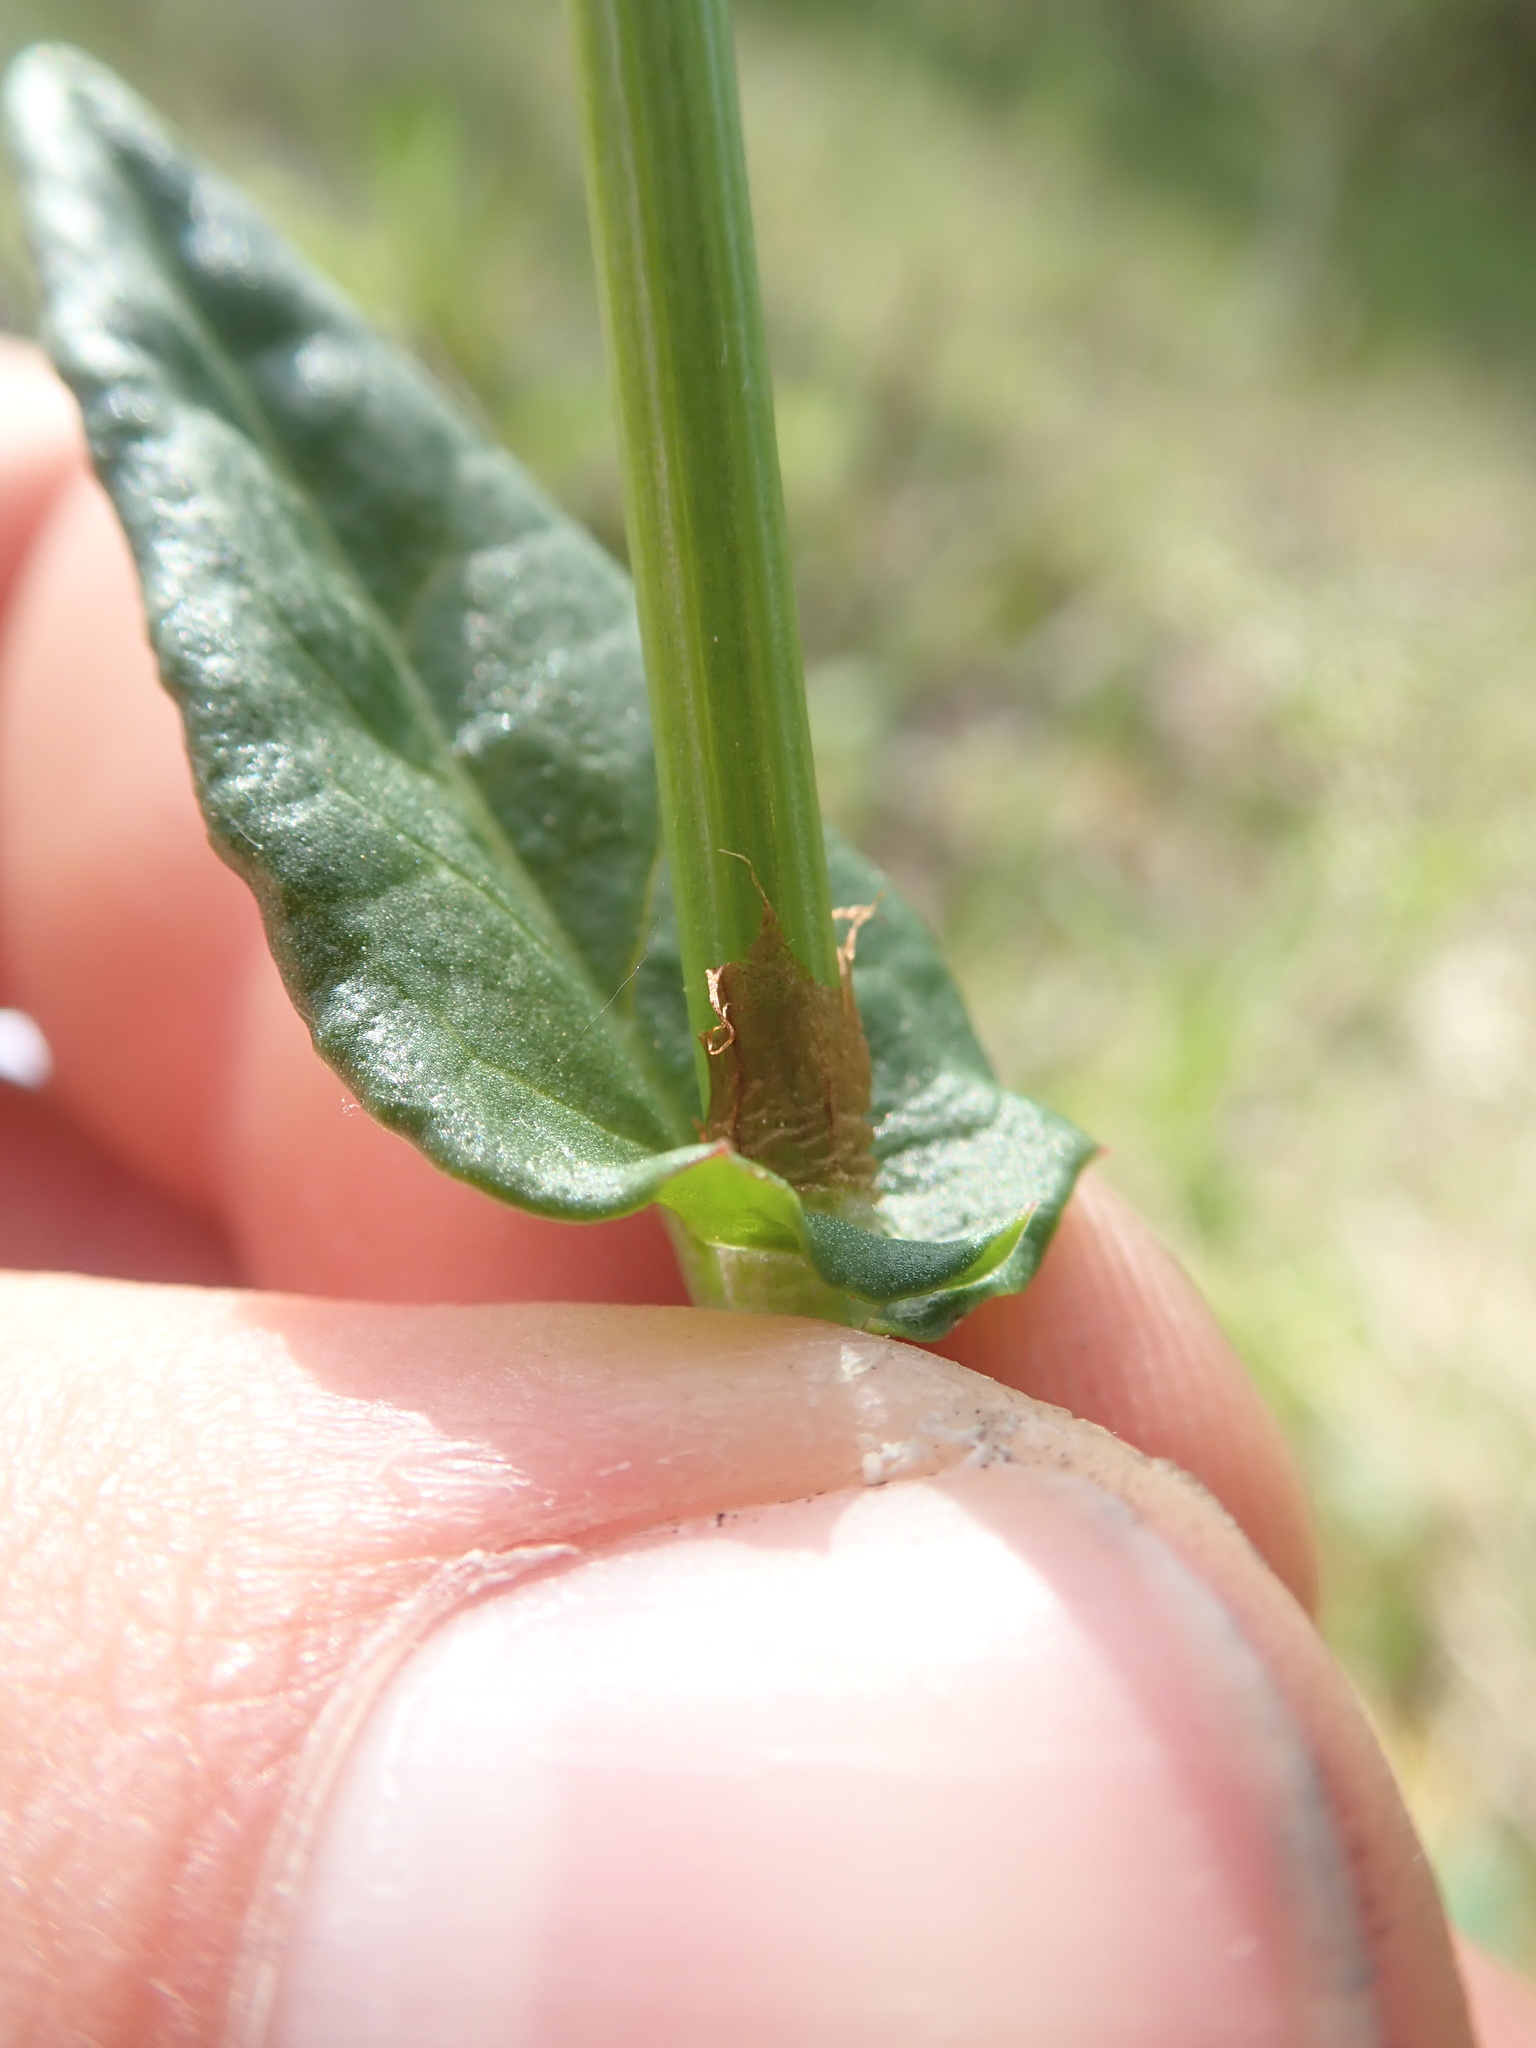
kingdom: Plantae
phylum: Tracheophyta
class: Magnoliopsida
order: Caryophyllales
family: Polygonaceae
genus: Rumex
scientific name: Rumex acetosa
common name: Garden sorrel
